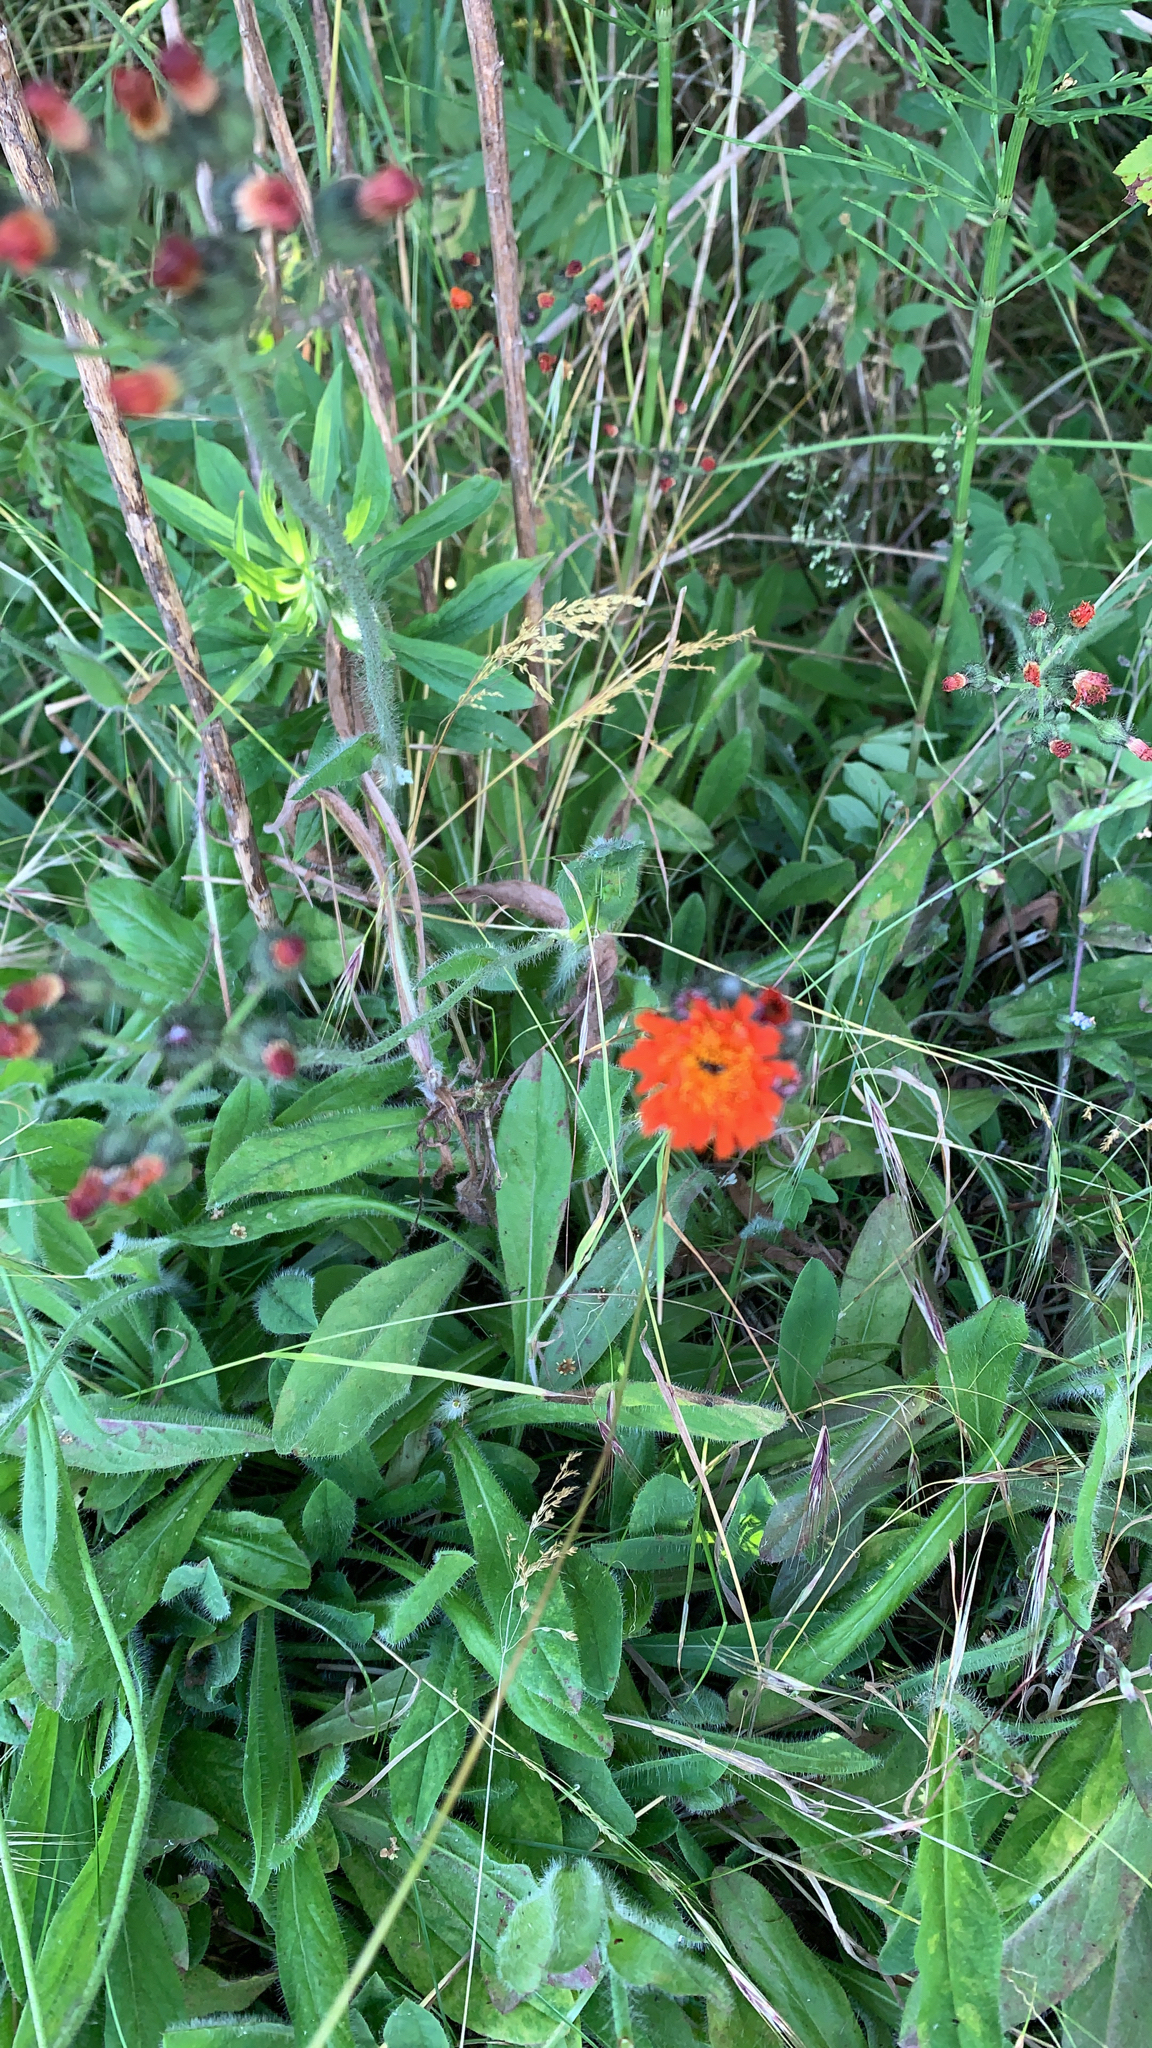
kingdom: Plantae
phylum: Tracheophyta
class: Magnoliopsida
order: Asterales
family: Asteraceae
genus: Pilosella
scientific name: Pilosella aurantiaca
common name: Fox-and-cubs
